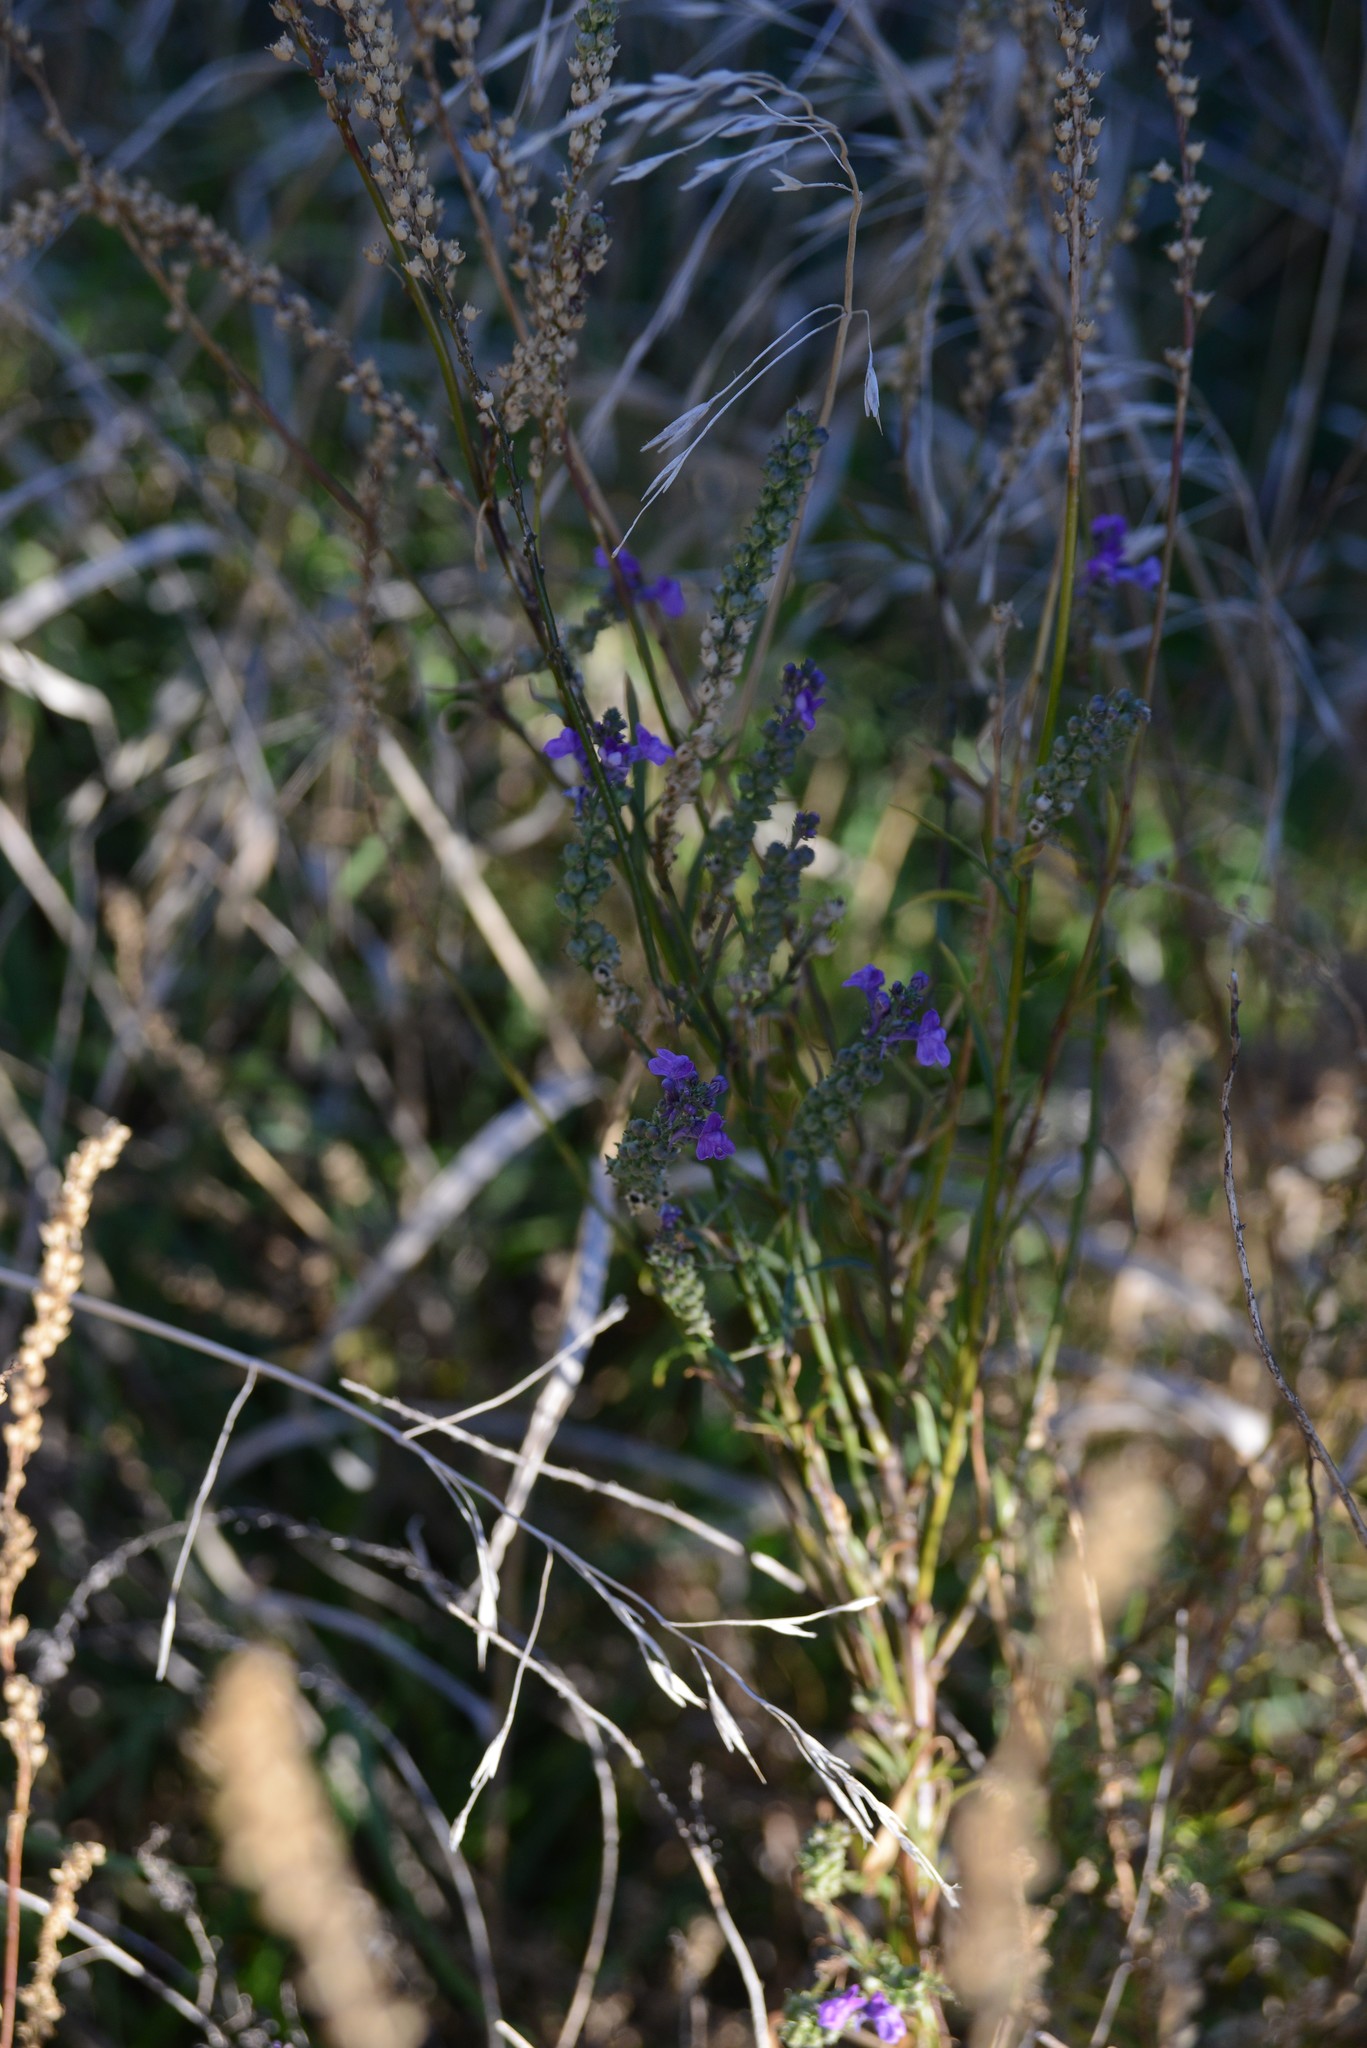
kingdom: Plantae
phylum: Tracheophyta
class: Magnoliopsida
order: Lamiales
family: Plantaginaceae
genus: Linaria
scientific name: Linaria purpurea
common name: Purple toadflax
